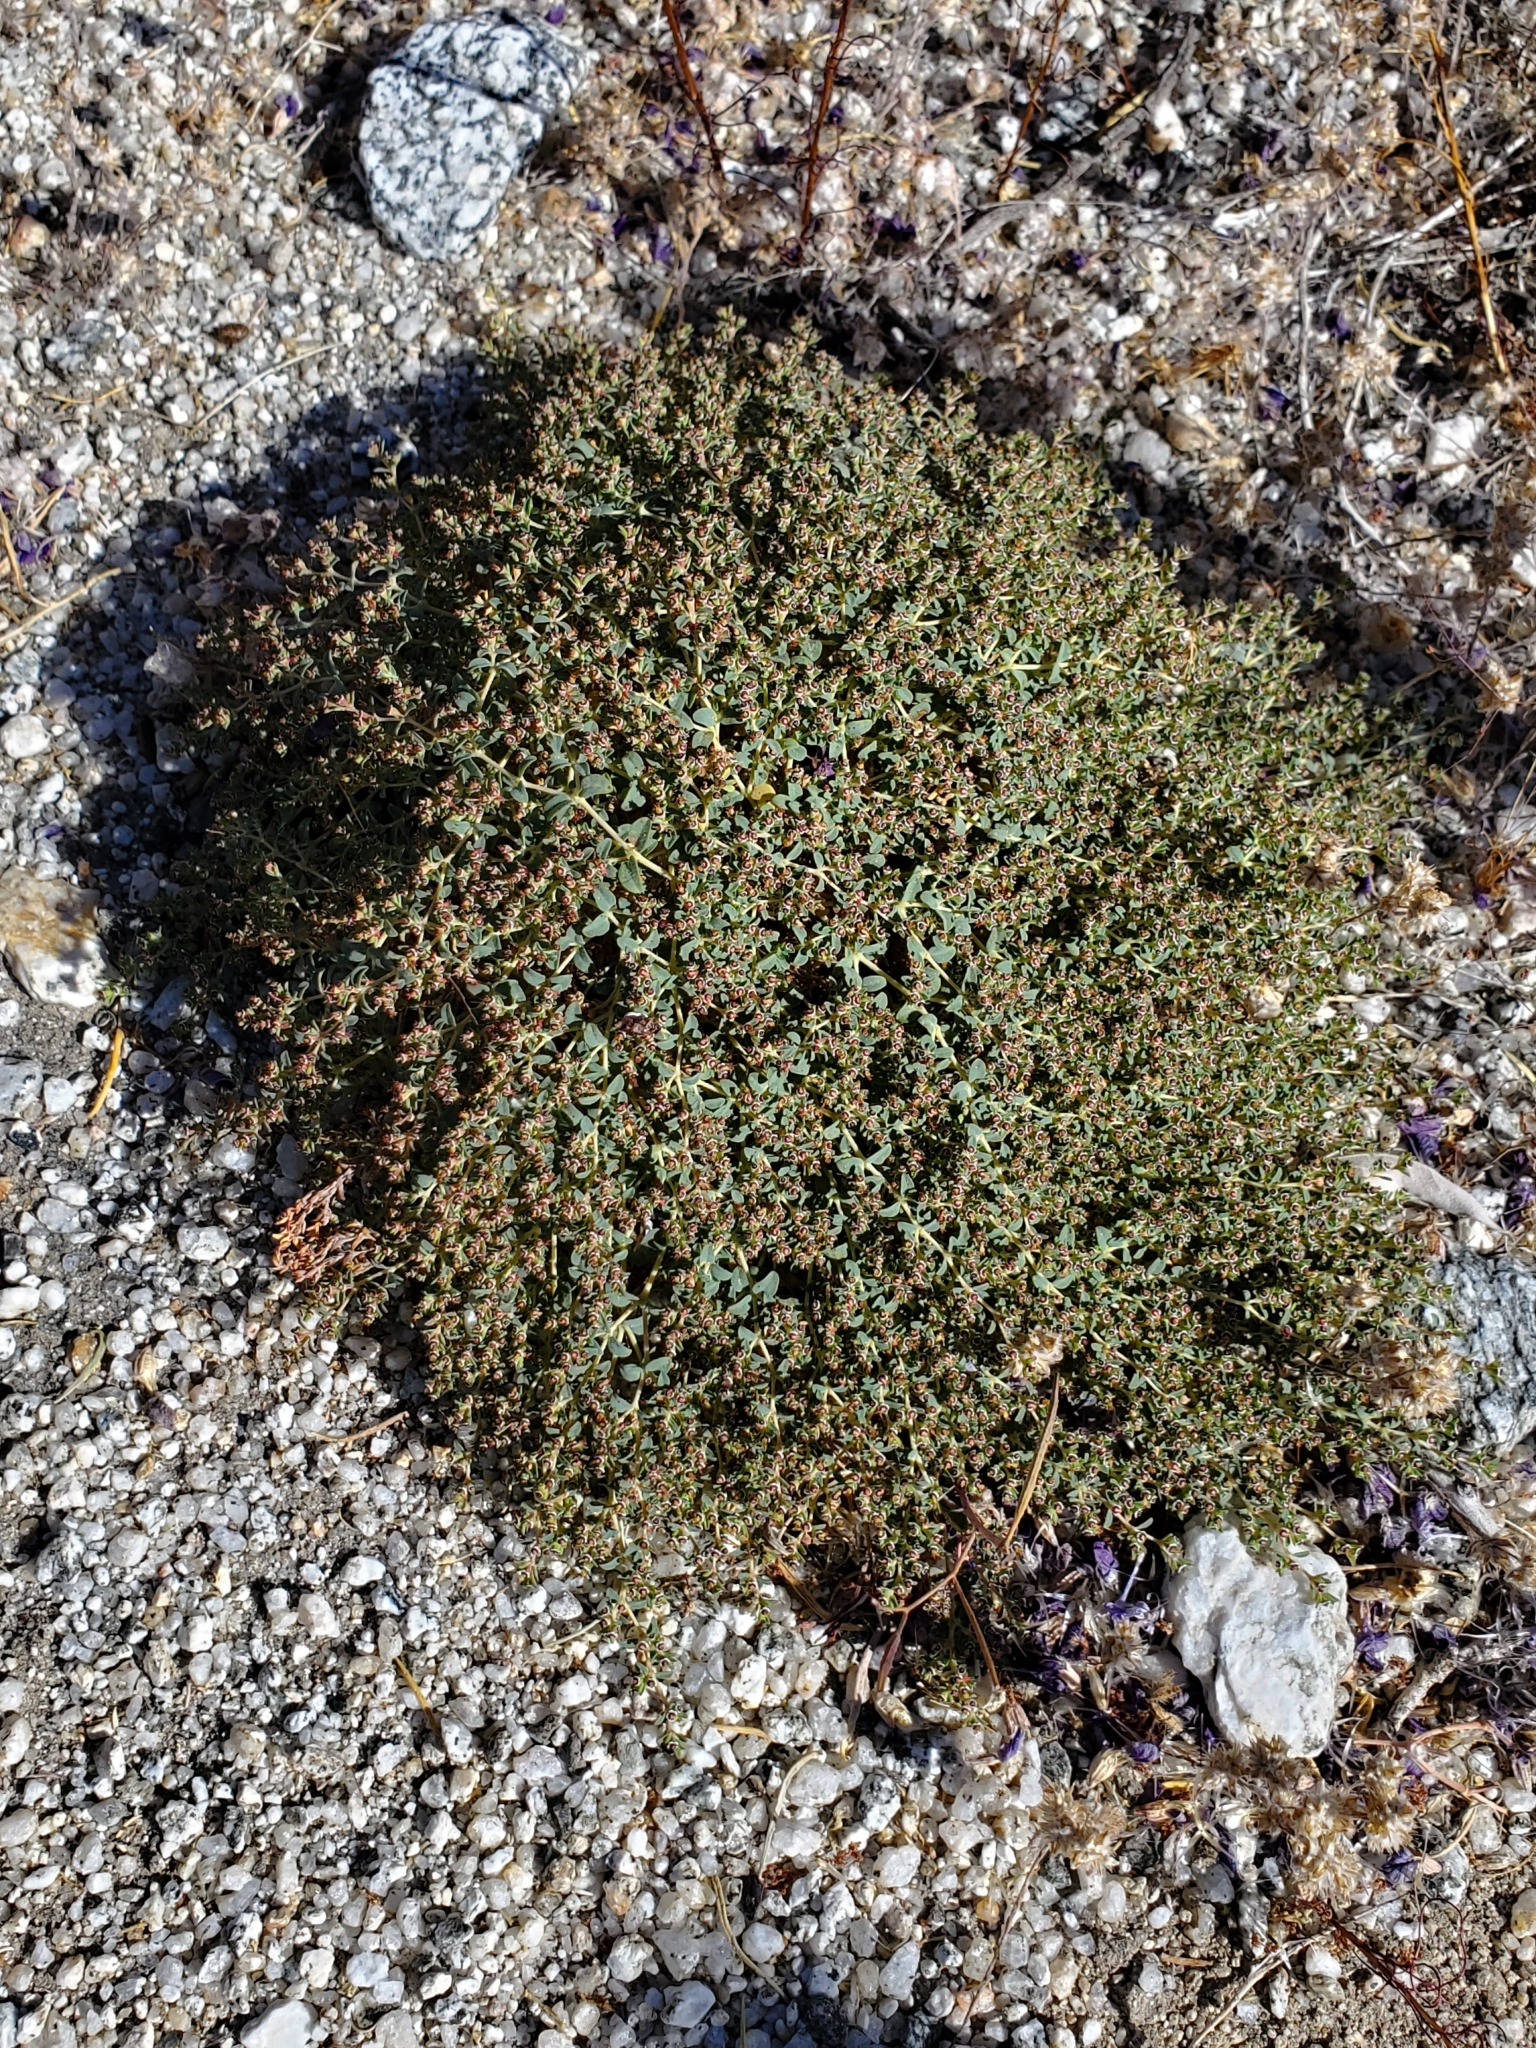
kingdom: Plantae
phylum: Tracheophyta
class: Magnoliopsida
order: Malpighiales
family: Euphorbiaceae
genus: Euphorbia
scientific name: Euphorbia polycarpa
